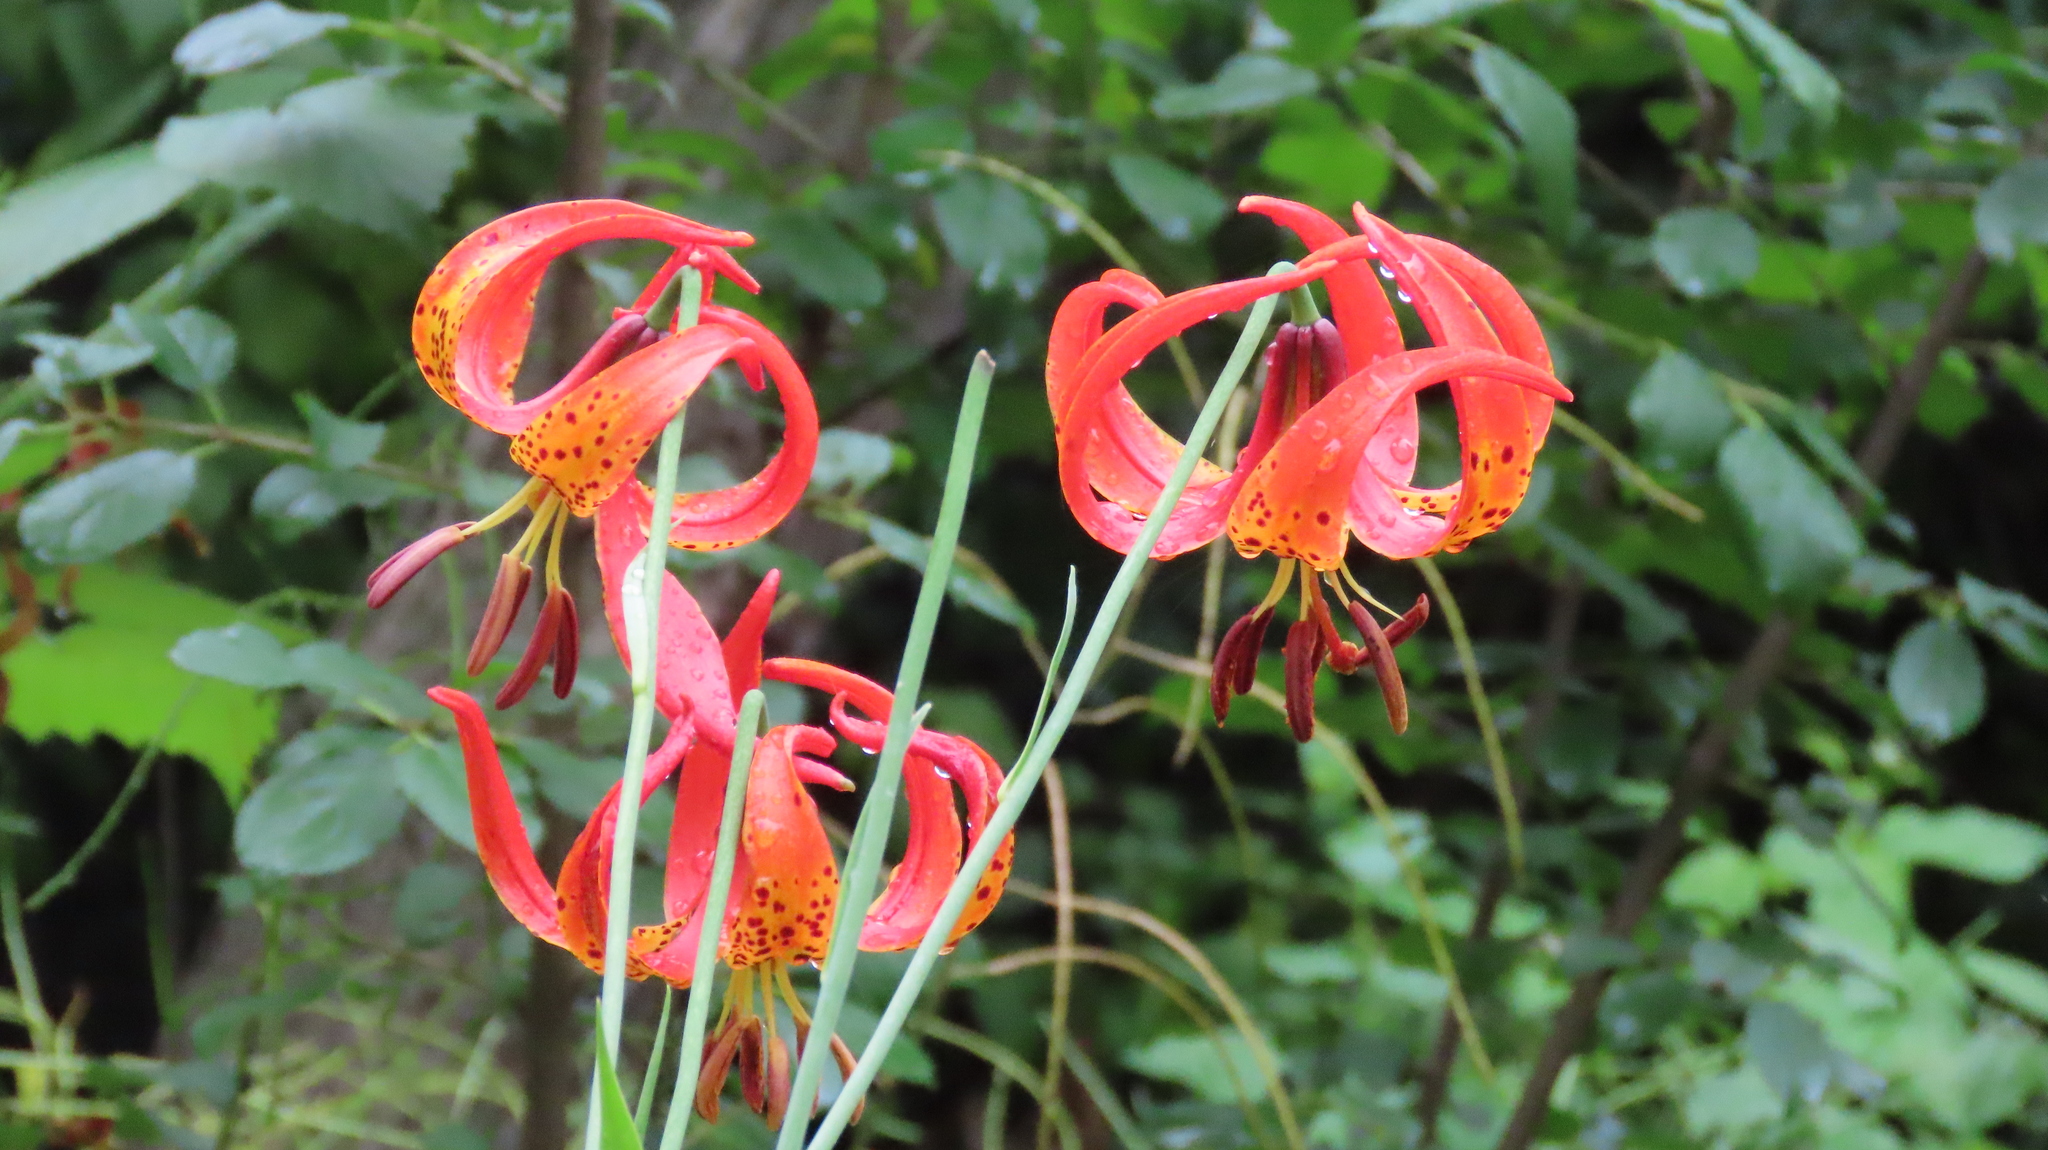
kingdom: Plantae
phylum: Tracheophyta
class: Liliopsida
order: Liliales
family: Liliaceae
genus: Lilium
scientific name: Lilium michiganense
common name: Michigan lily
